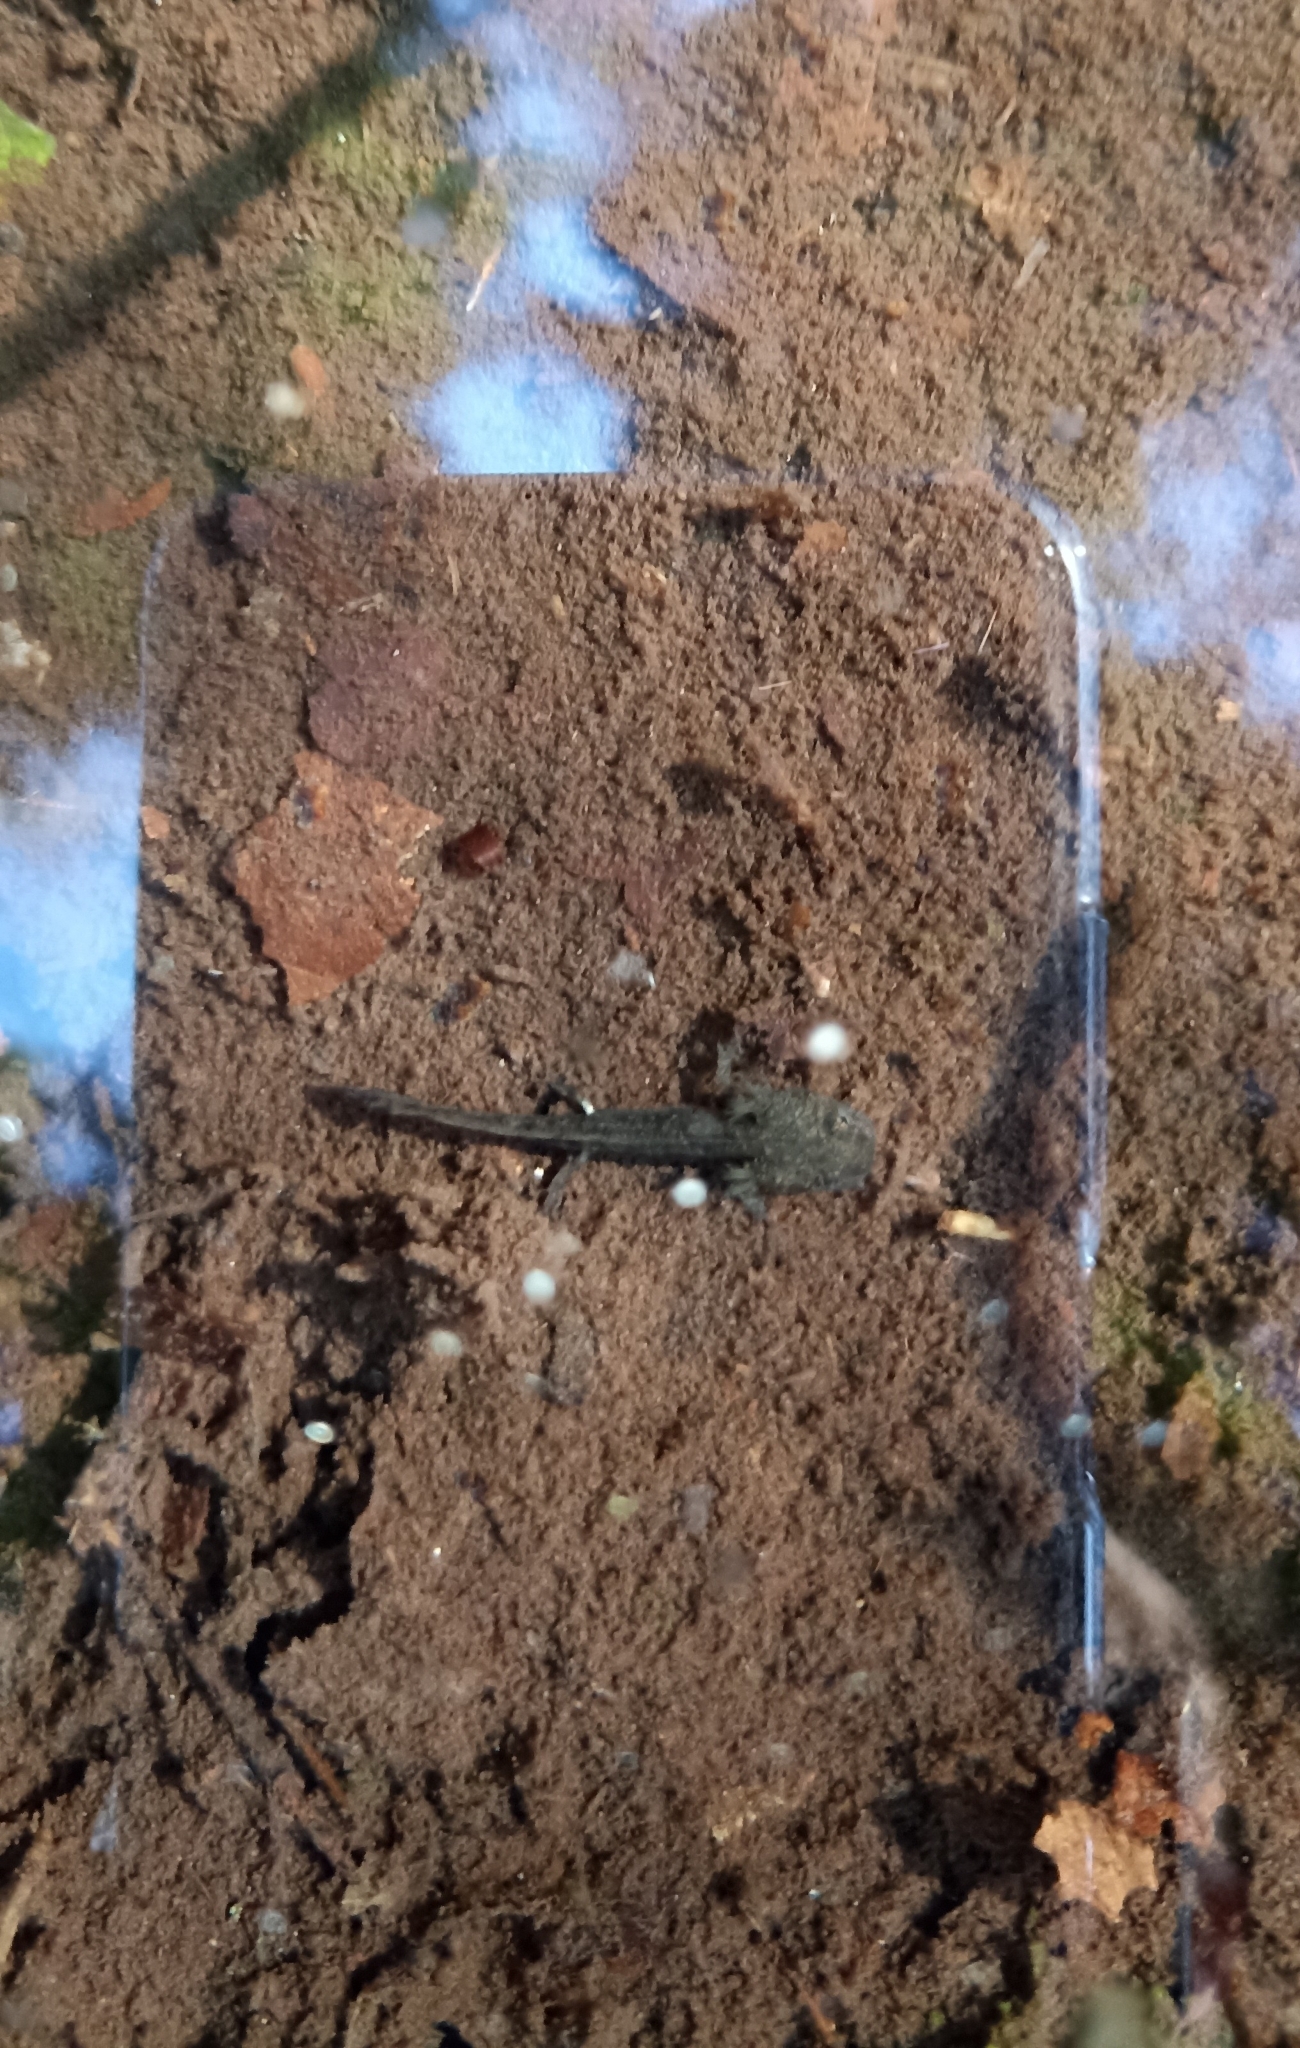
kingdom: Animalia
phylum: Chordata
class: Amphibia
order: Caudata
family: Salamandridae
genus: Salamandra
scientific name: Salamandra salamandra
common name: Fire salamander
